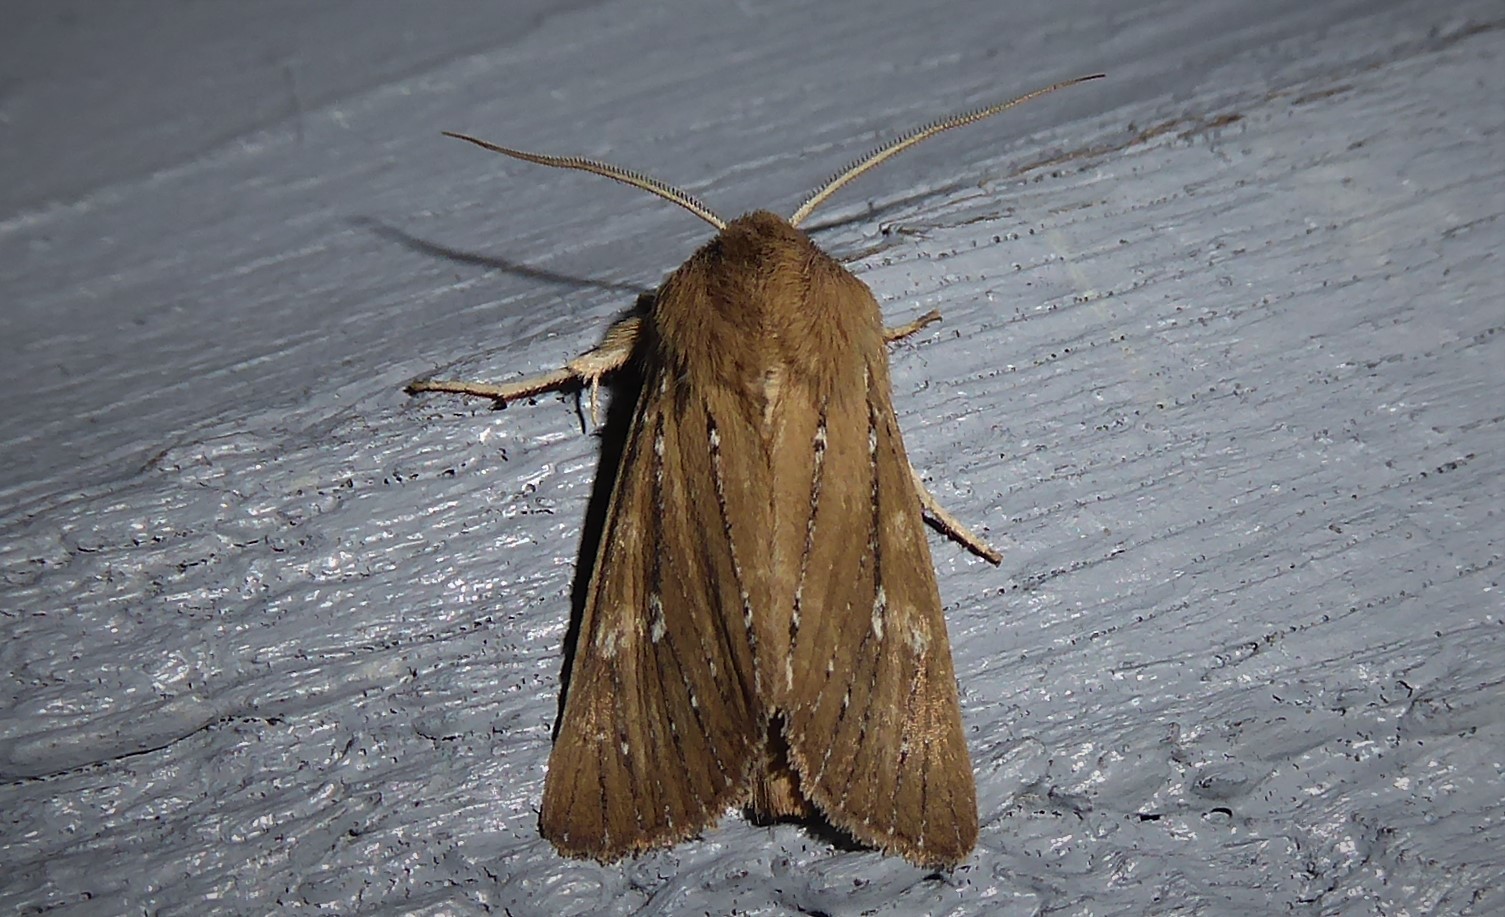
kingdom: Animalia
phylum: Arthropoda
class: Insecta
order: Lepidoptera
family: Noctuidae
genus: Ichneutica
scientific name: Ichneutica
